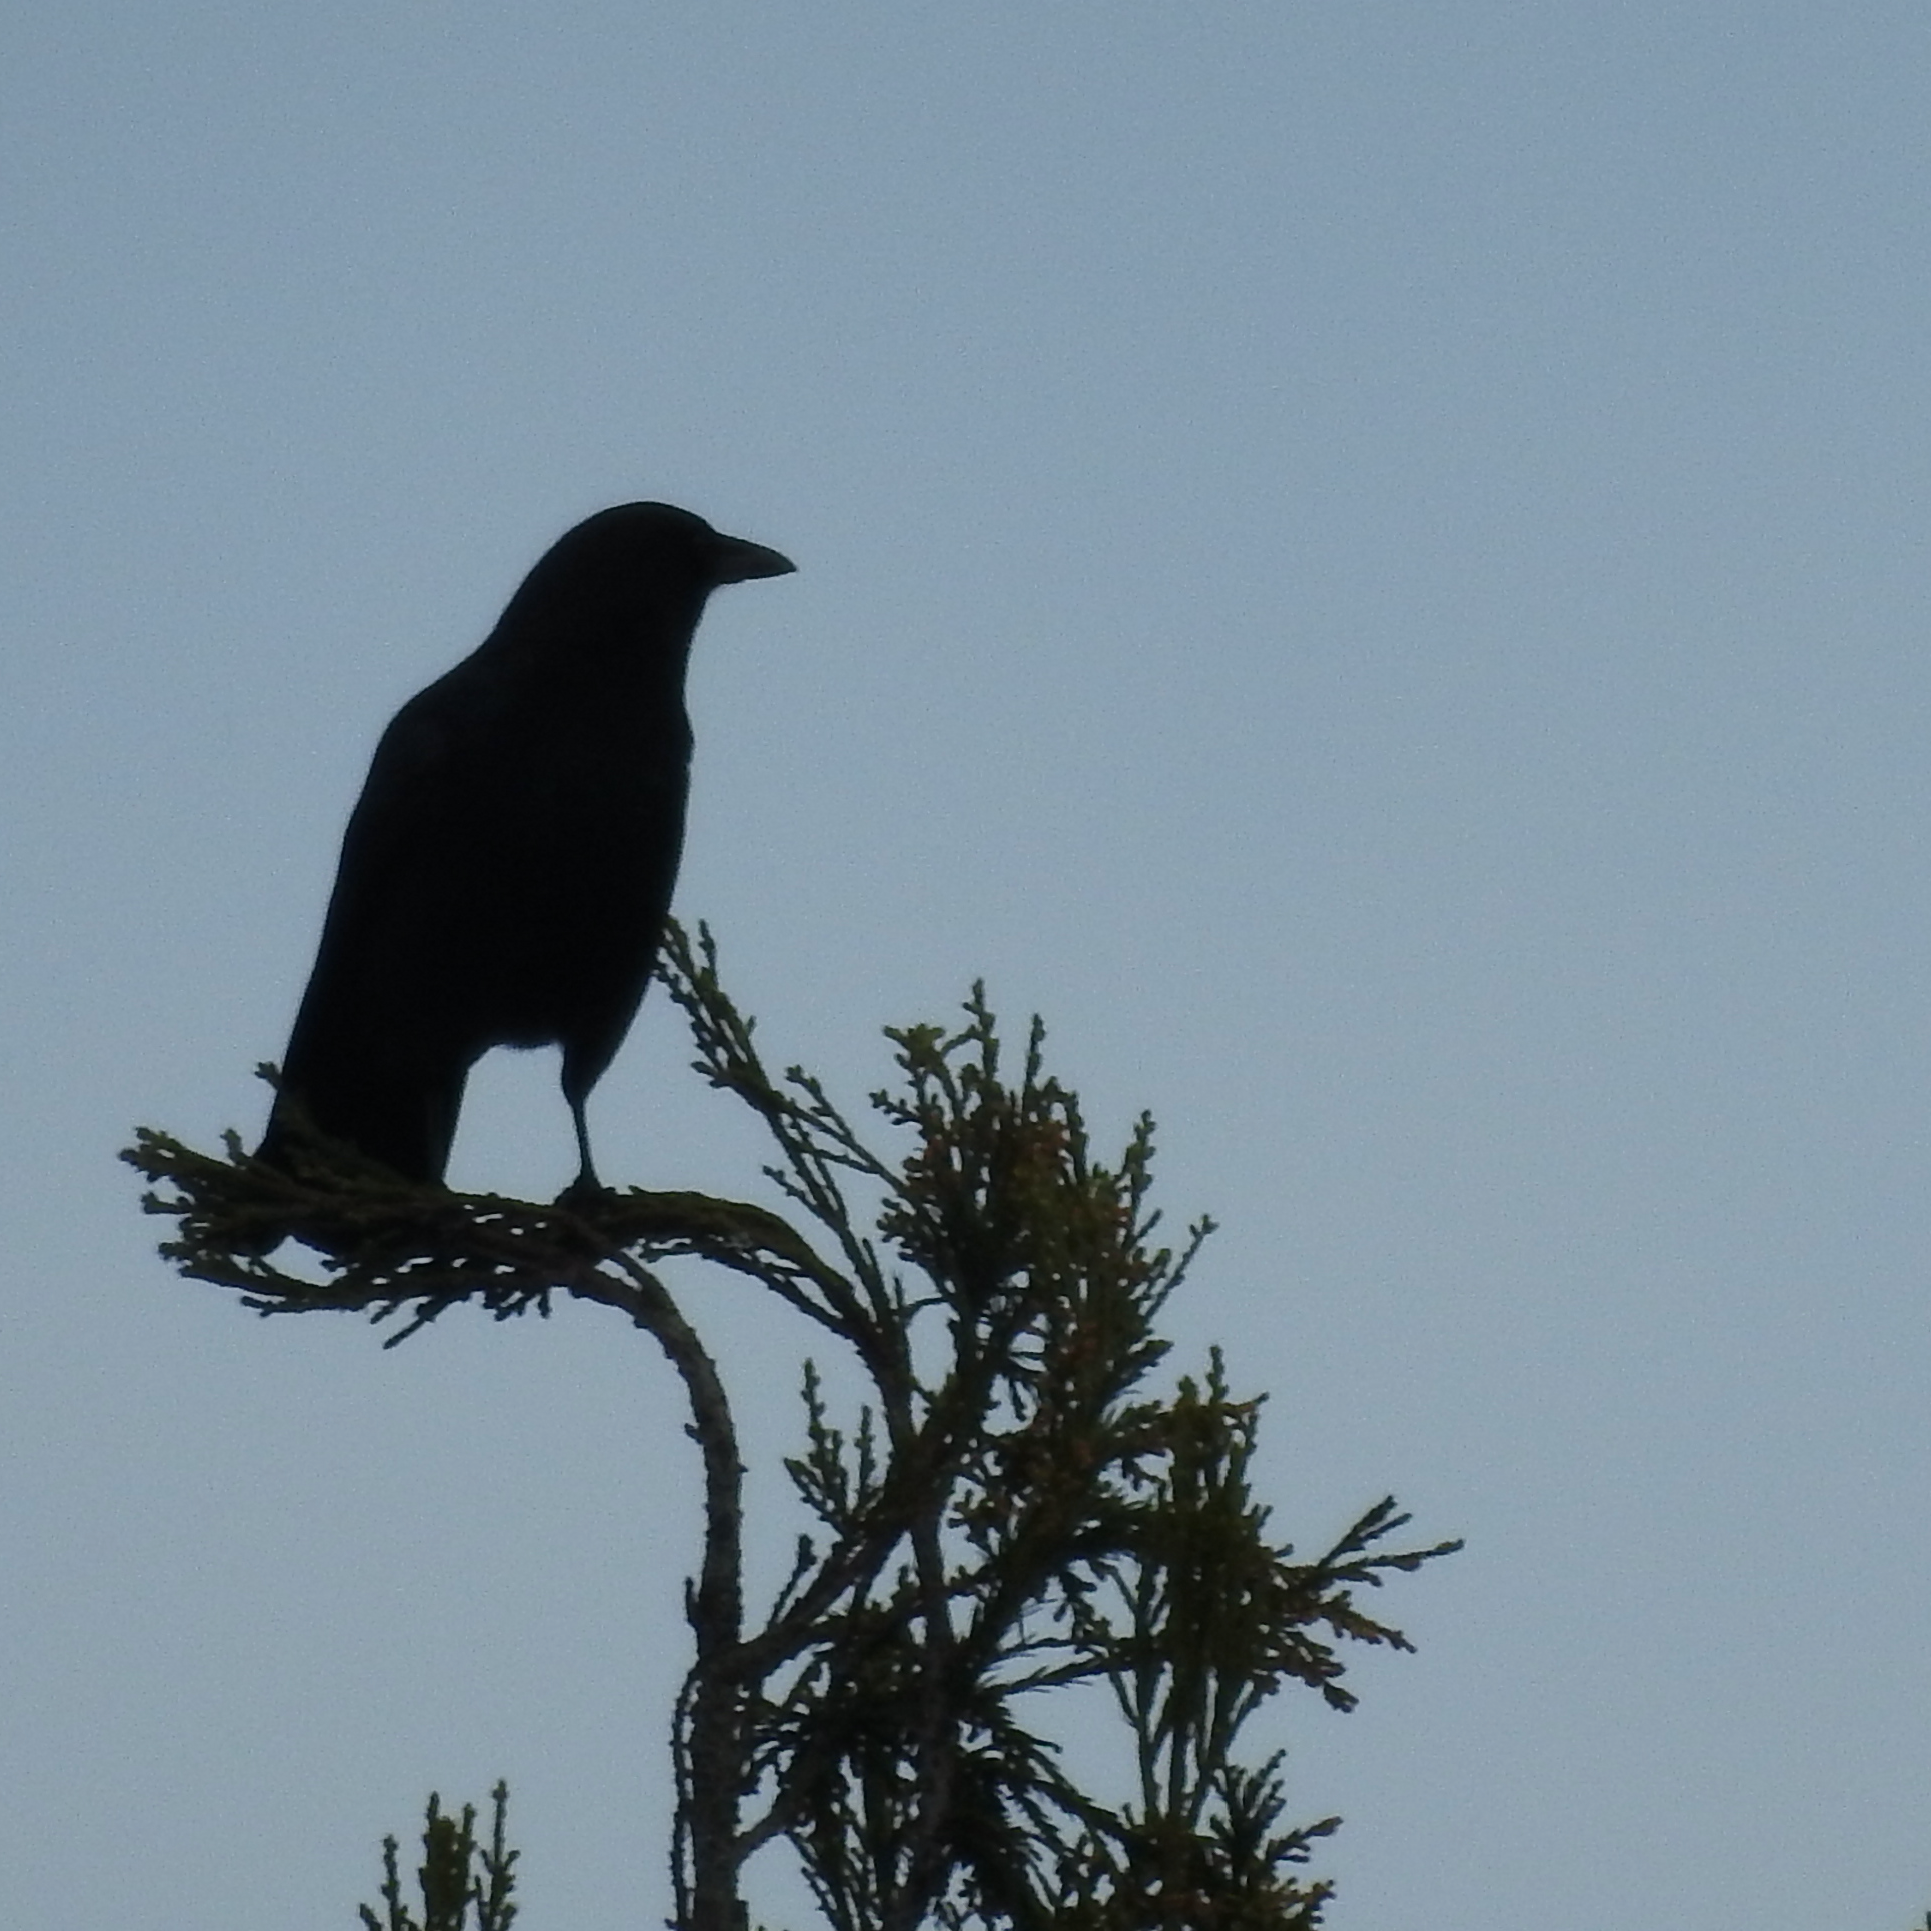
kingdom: Animalia
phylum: Chordata
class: Aves
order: Passeriformes
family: Corvidae
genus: Corvus
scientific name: Corvus brachyrhynchos
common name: American crow
